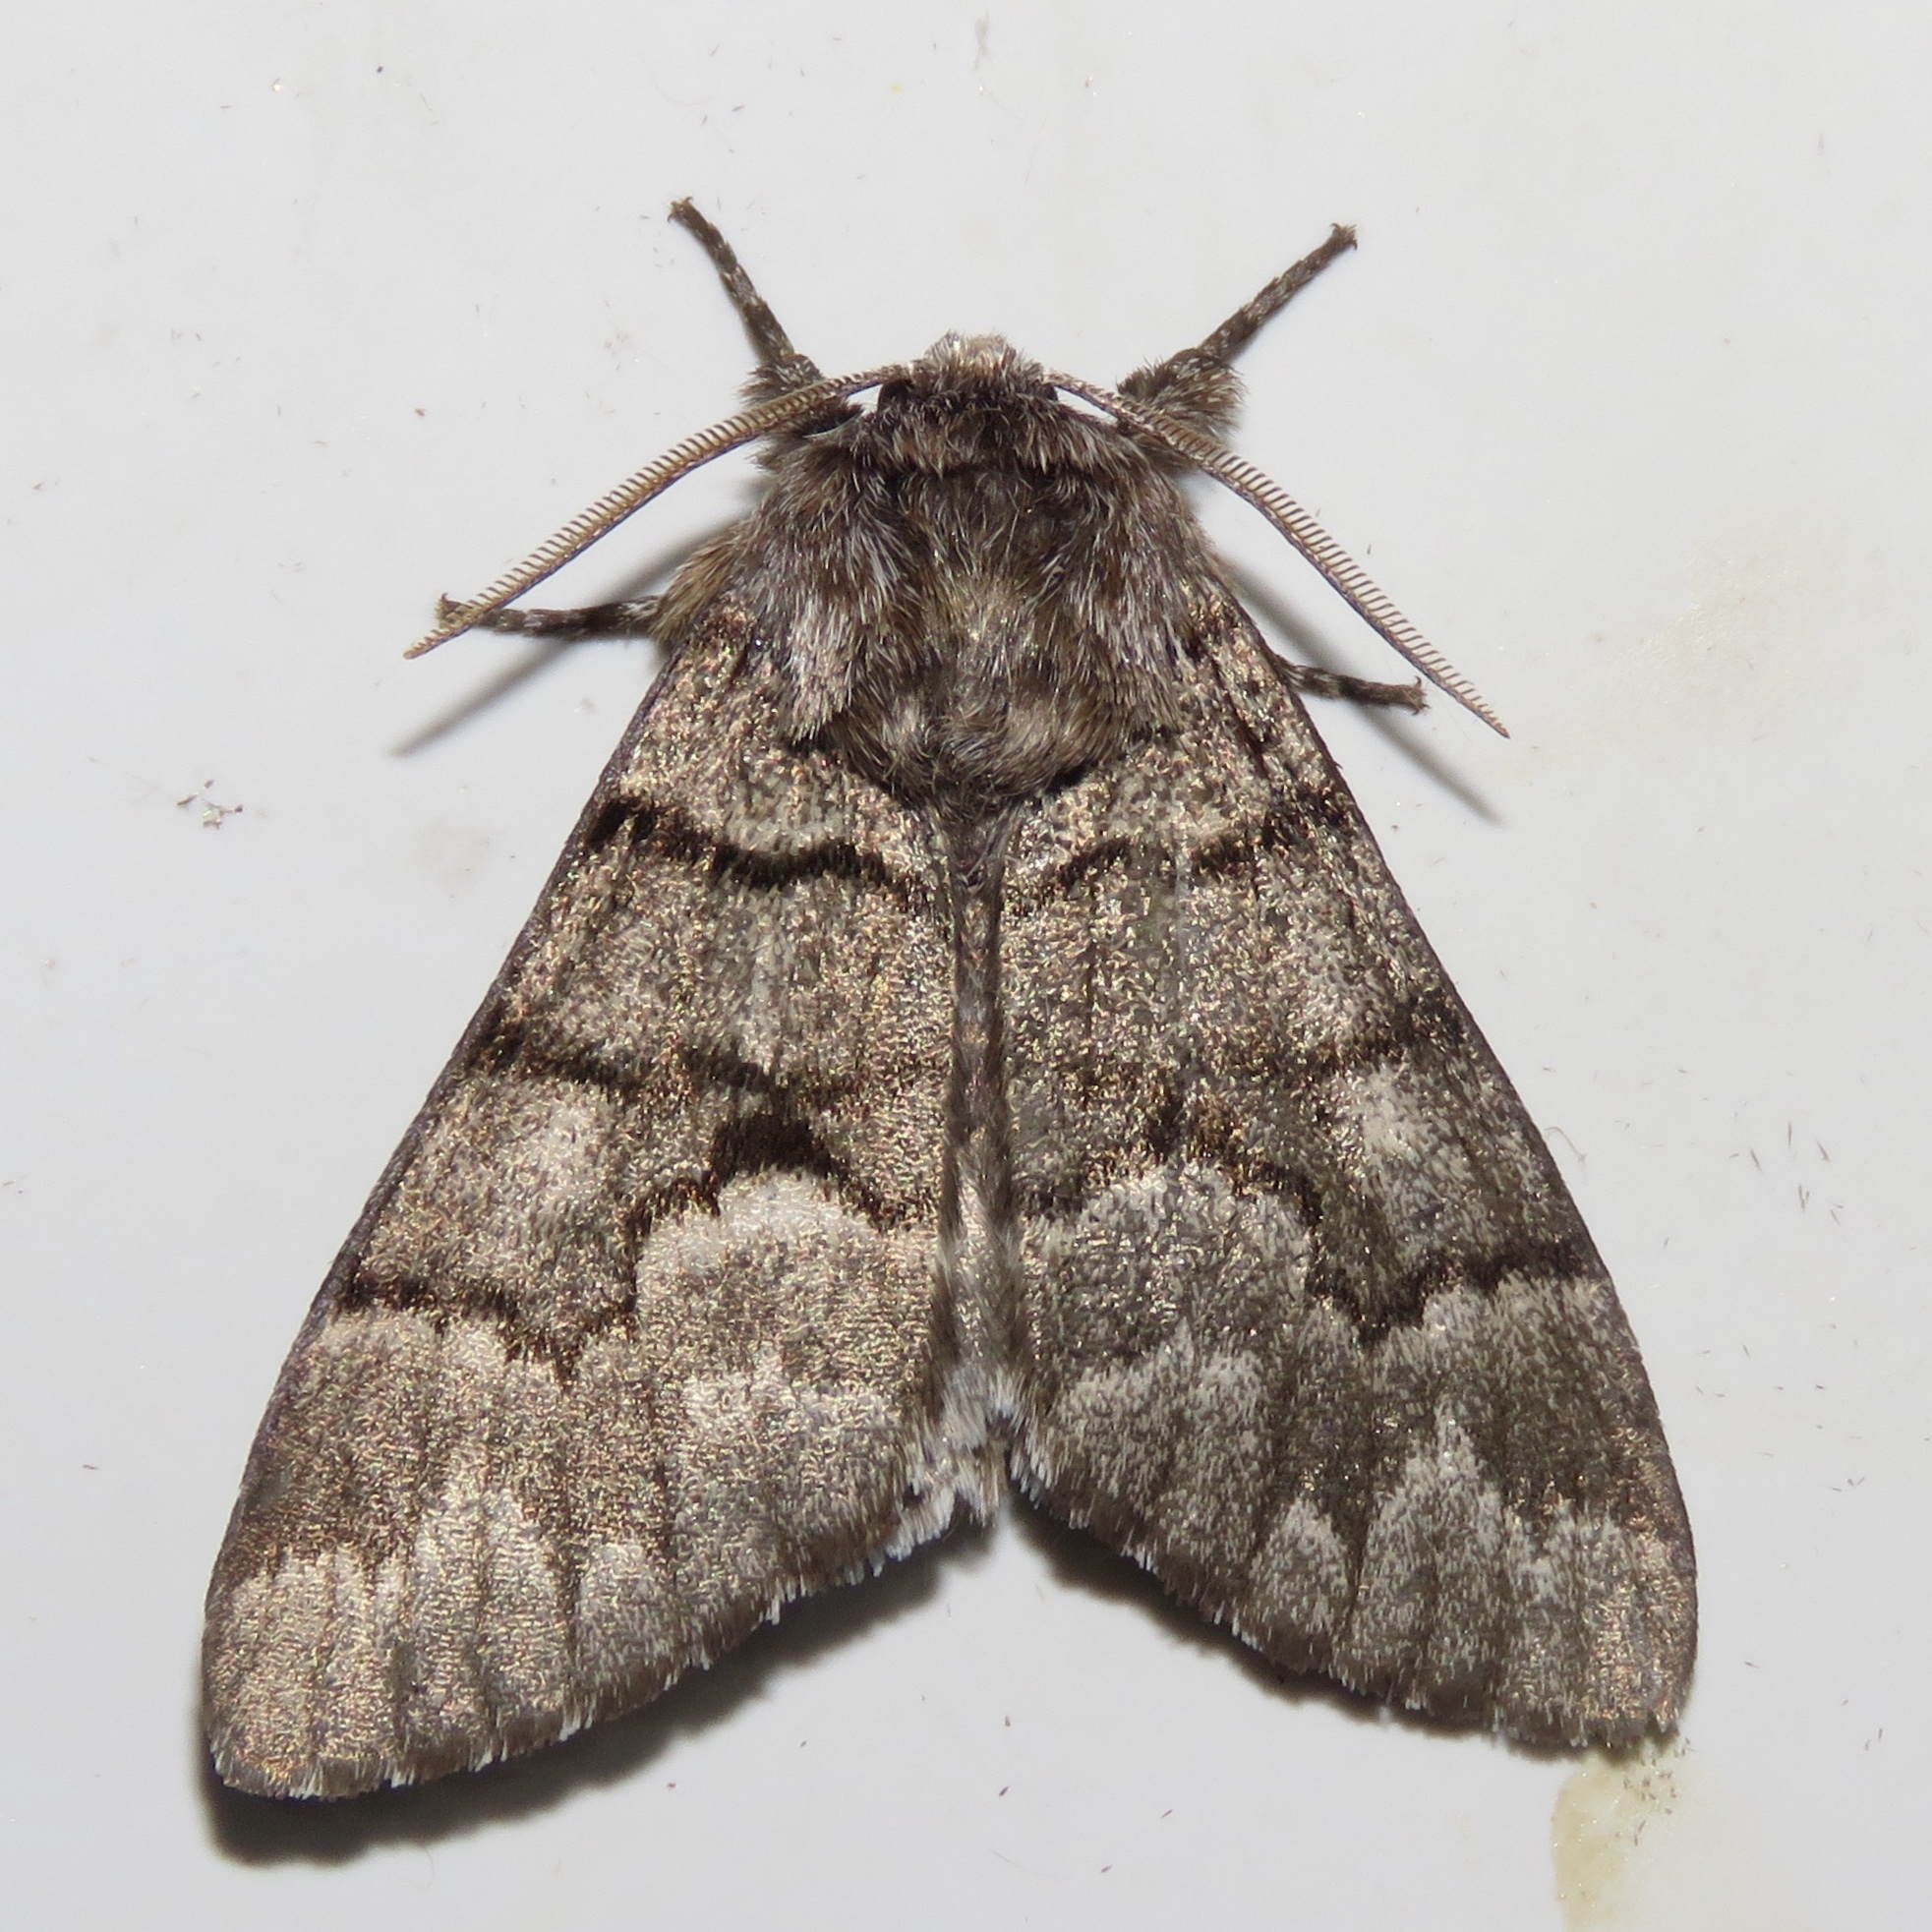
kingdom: Animalia
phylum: Arthropoda
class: Insecta
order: Lepidoptera
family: Noctuidae
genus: Panthea
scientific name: Panthea furcilla
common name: Eastern panthea moth
